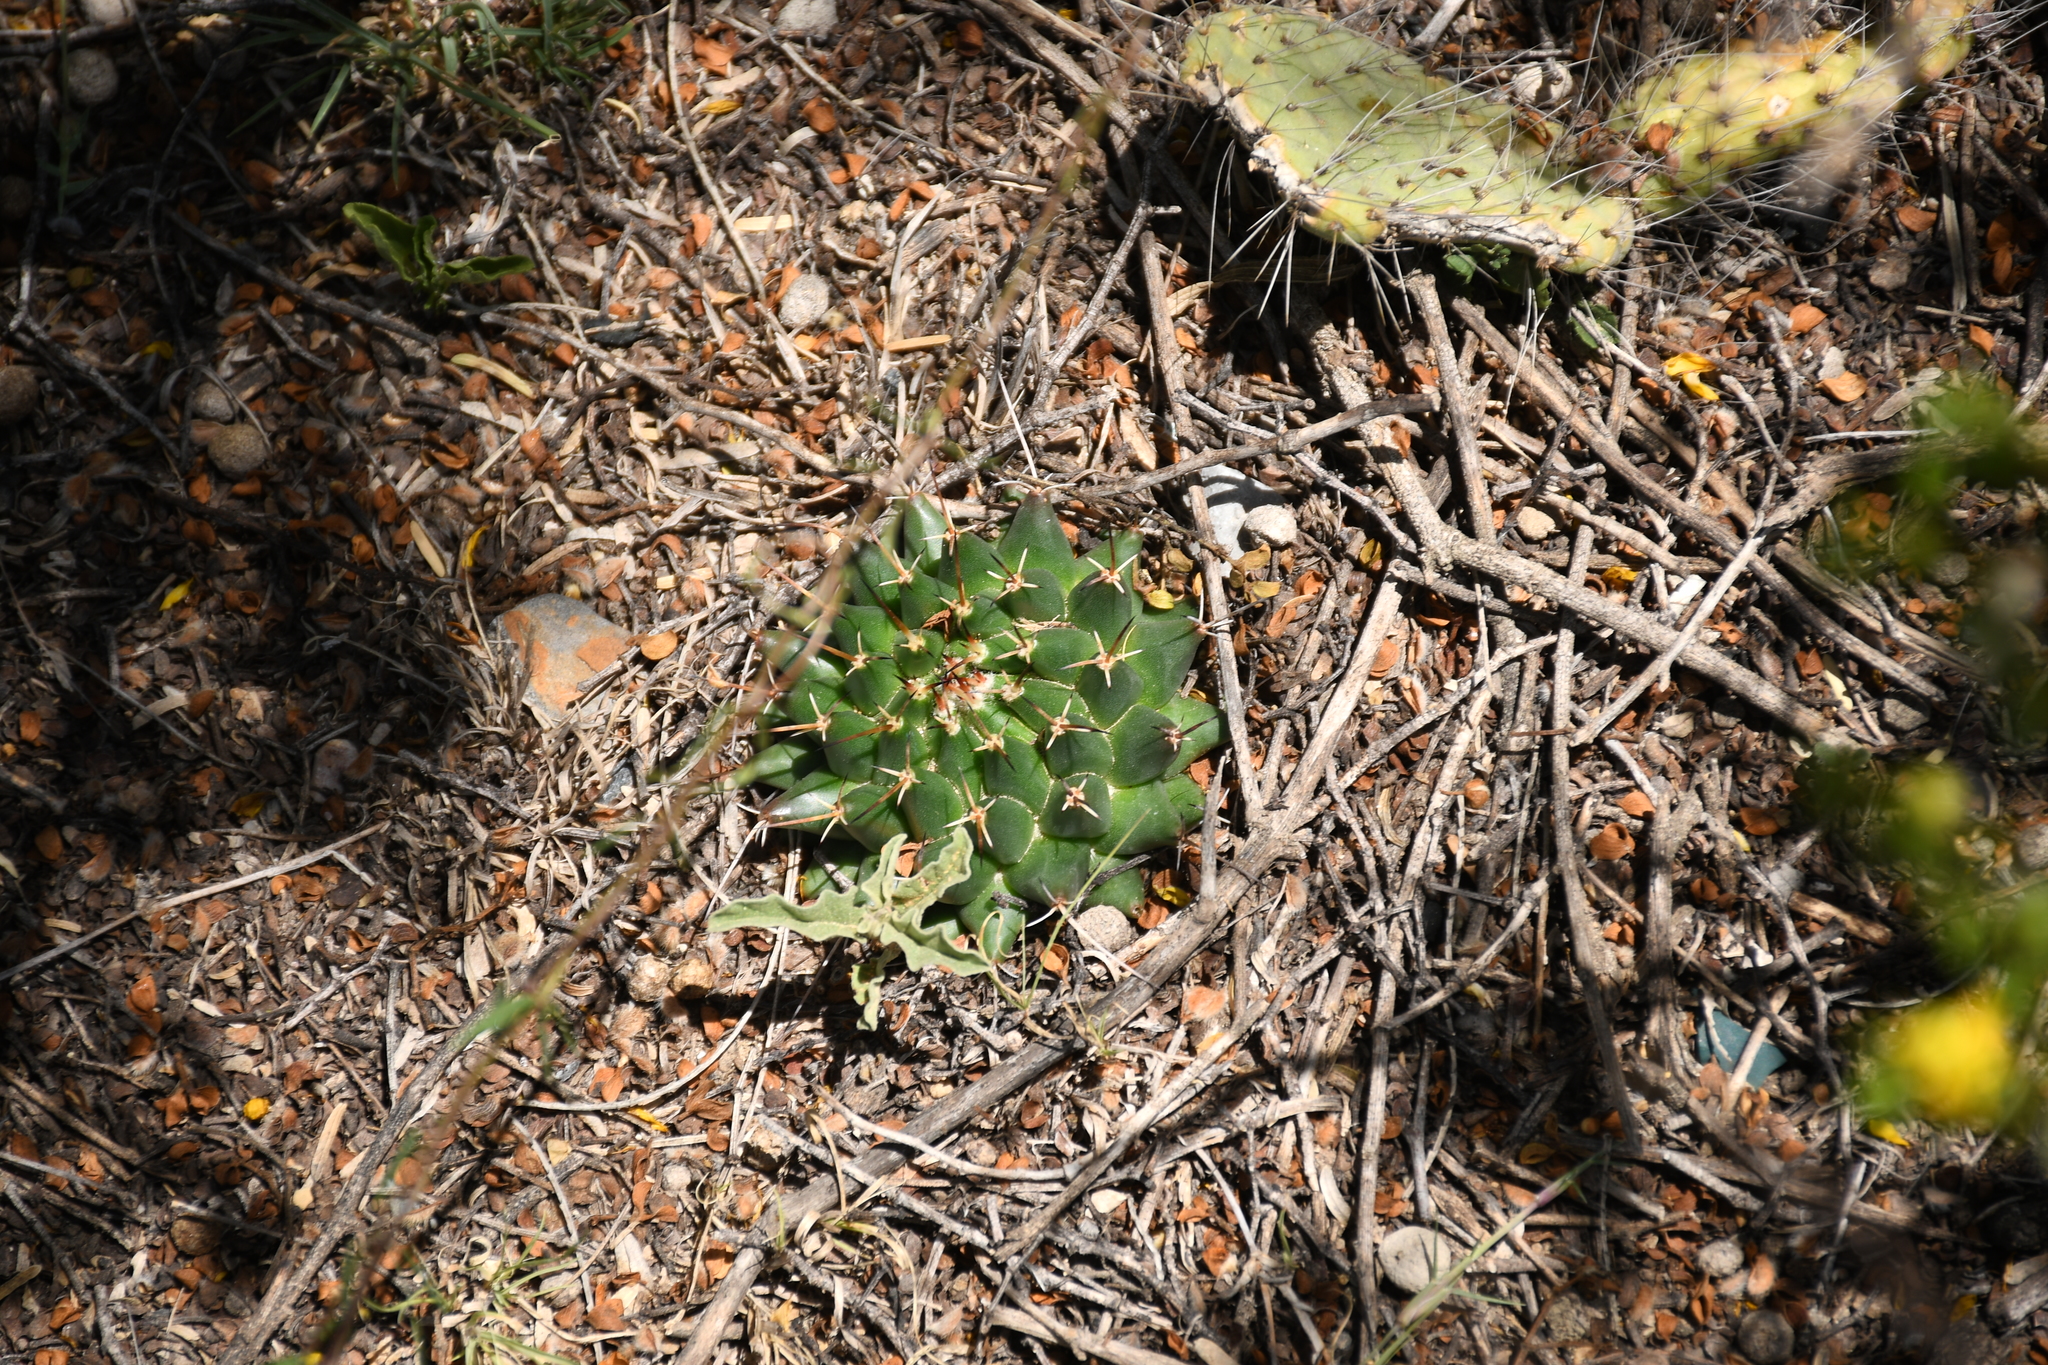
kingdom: Plantae
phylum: Tracheophyta
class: Magnoliopsida
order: Caryophyllales
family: Cactaceae
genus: Mammillaria
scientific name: Mammillaria magnimamma
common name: Mexican pincushion
